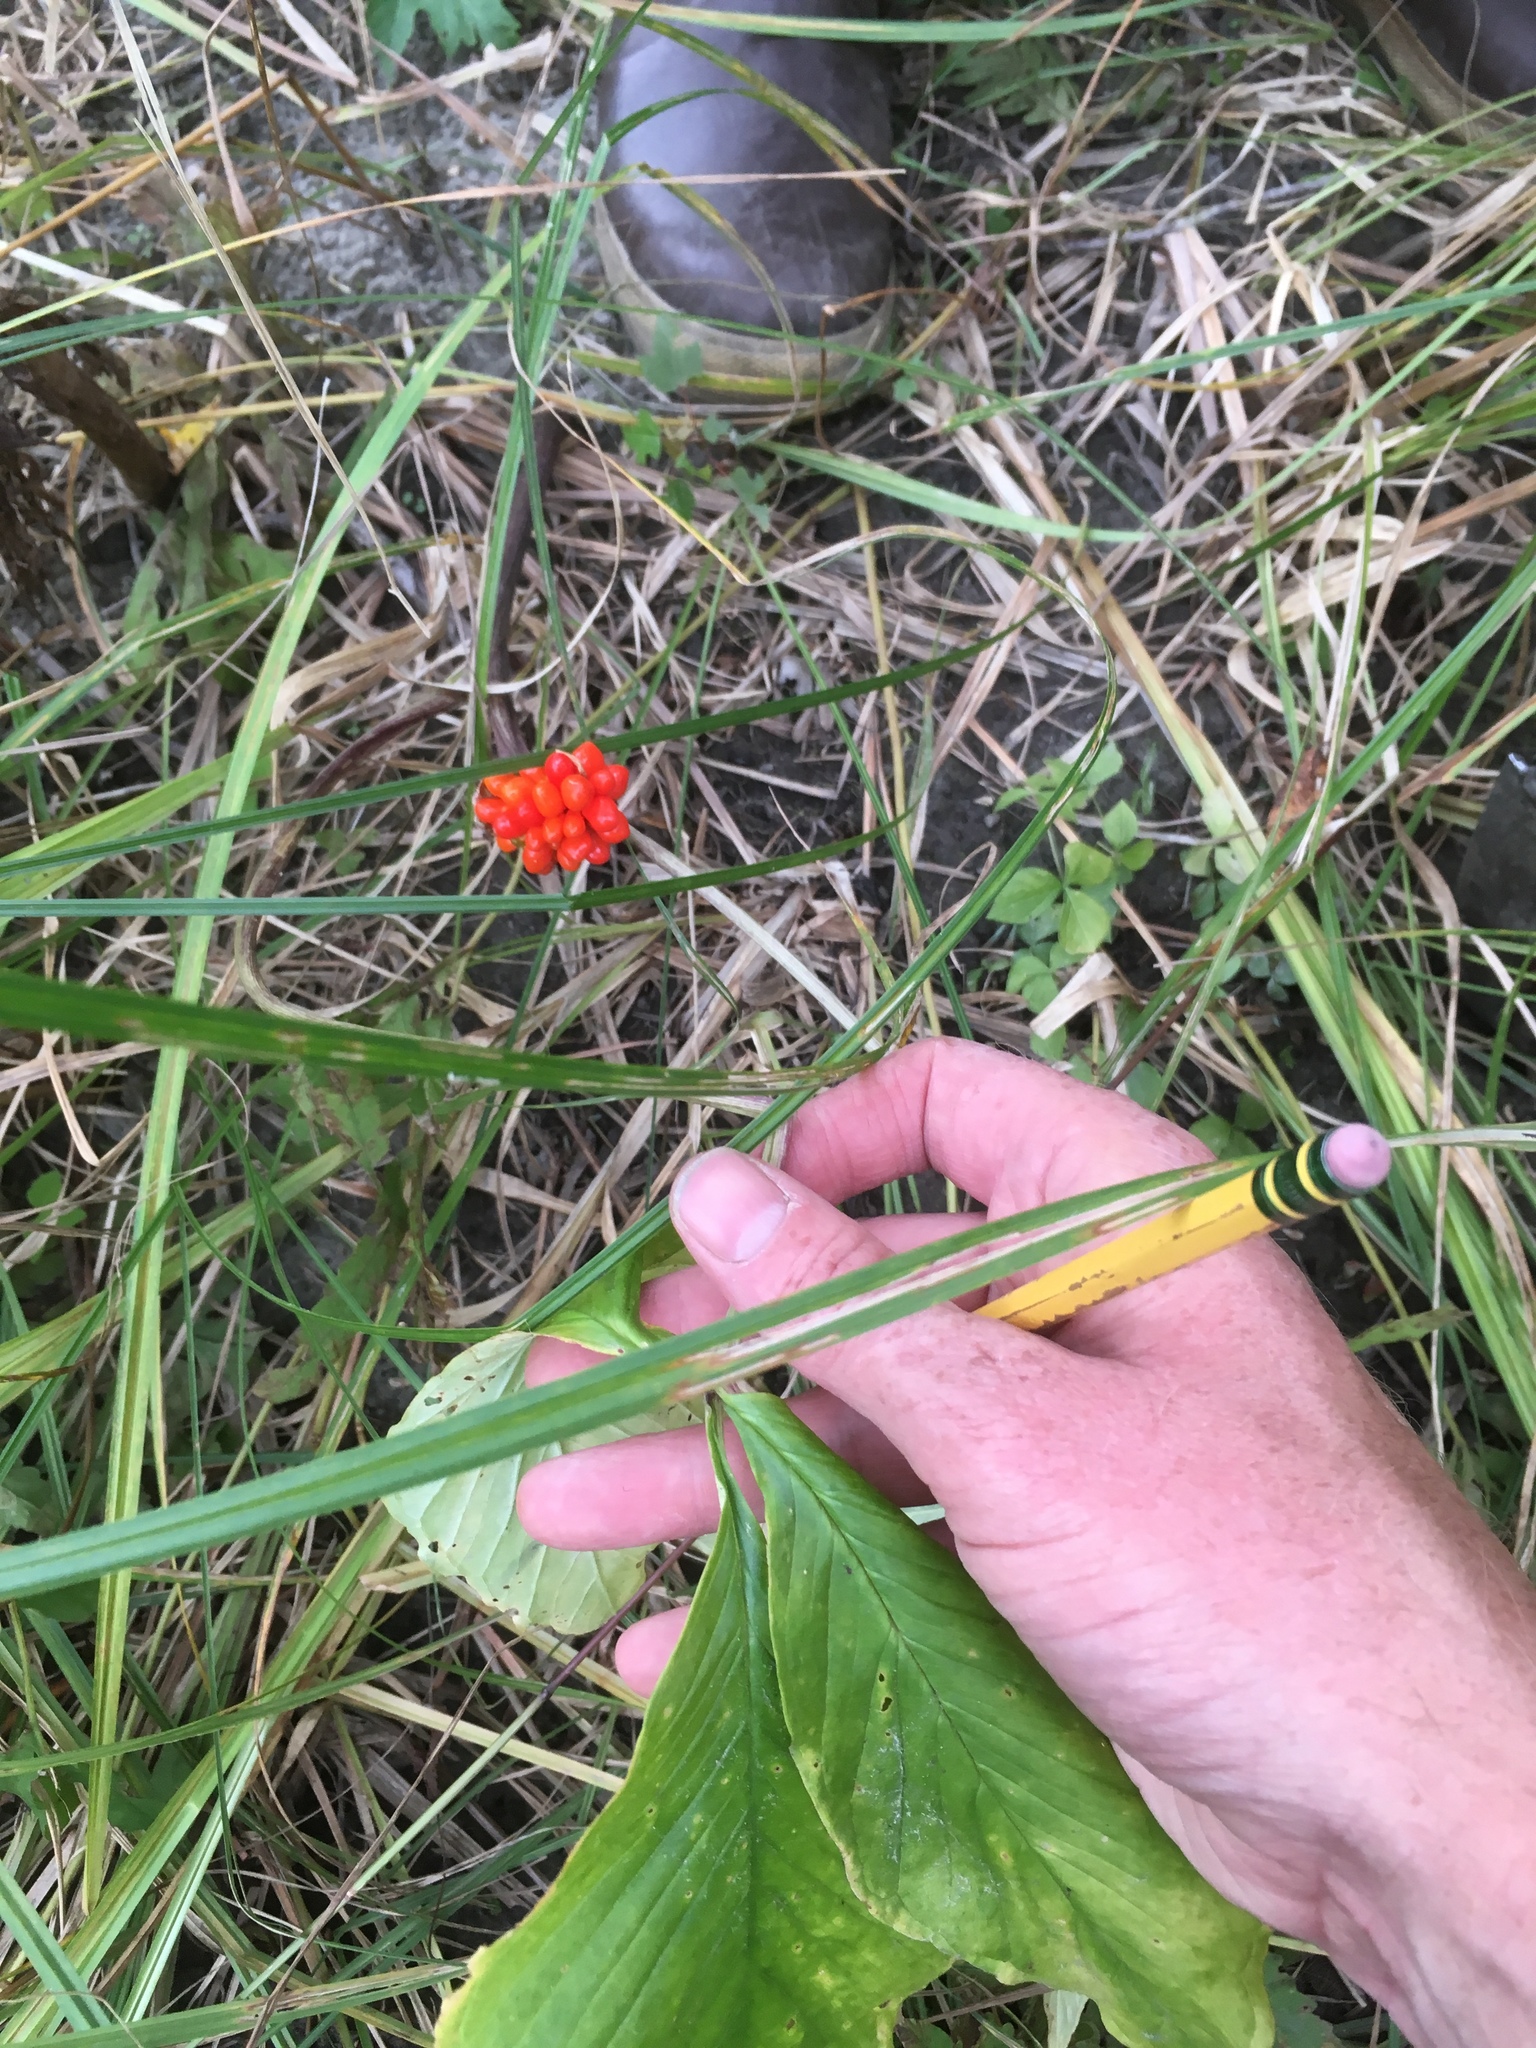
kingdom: Plantae
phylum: Tracheophyta
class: Liliopsida
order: Alismatales
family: Araceae
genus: Arisaema
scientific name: Arisaema triphyllum
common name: Jack-in-the-pulpit
